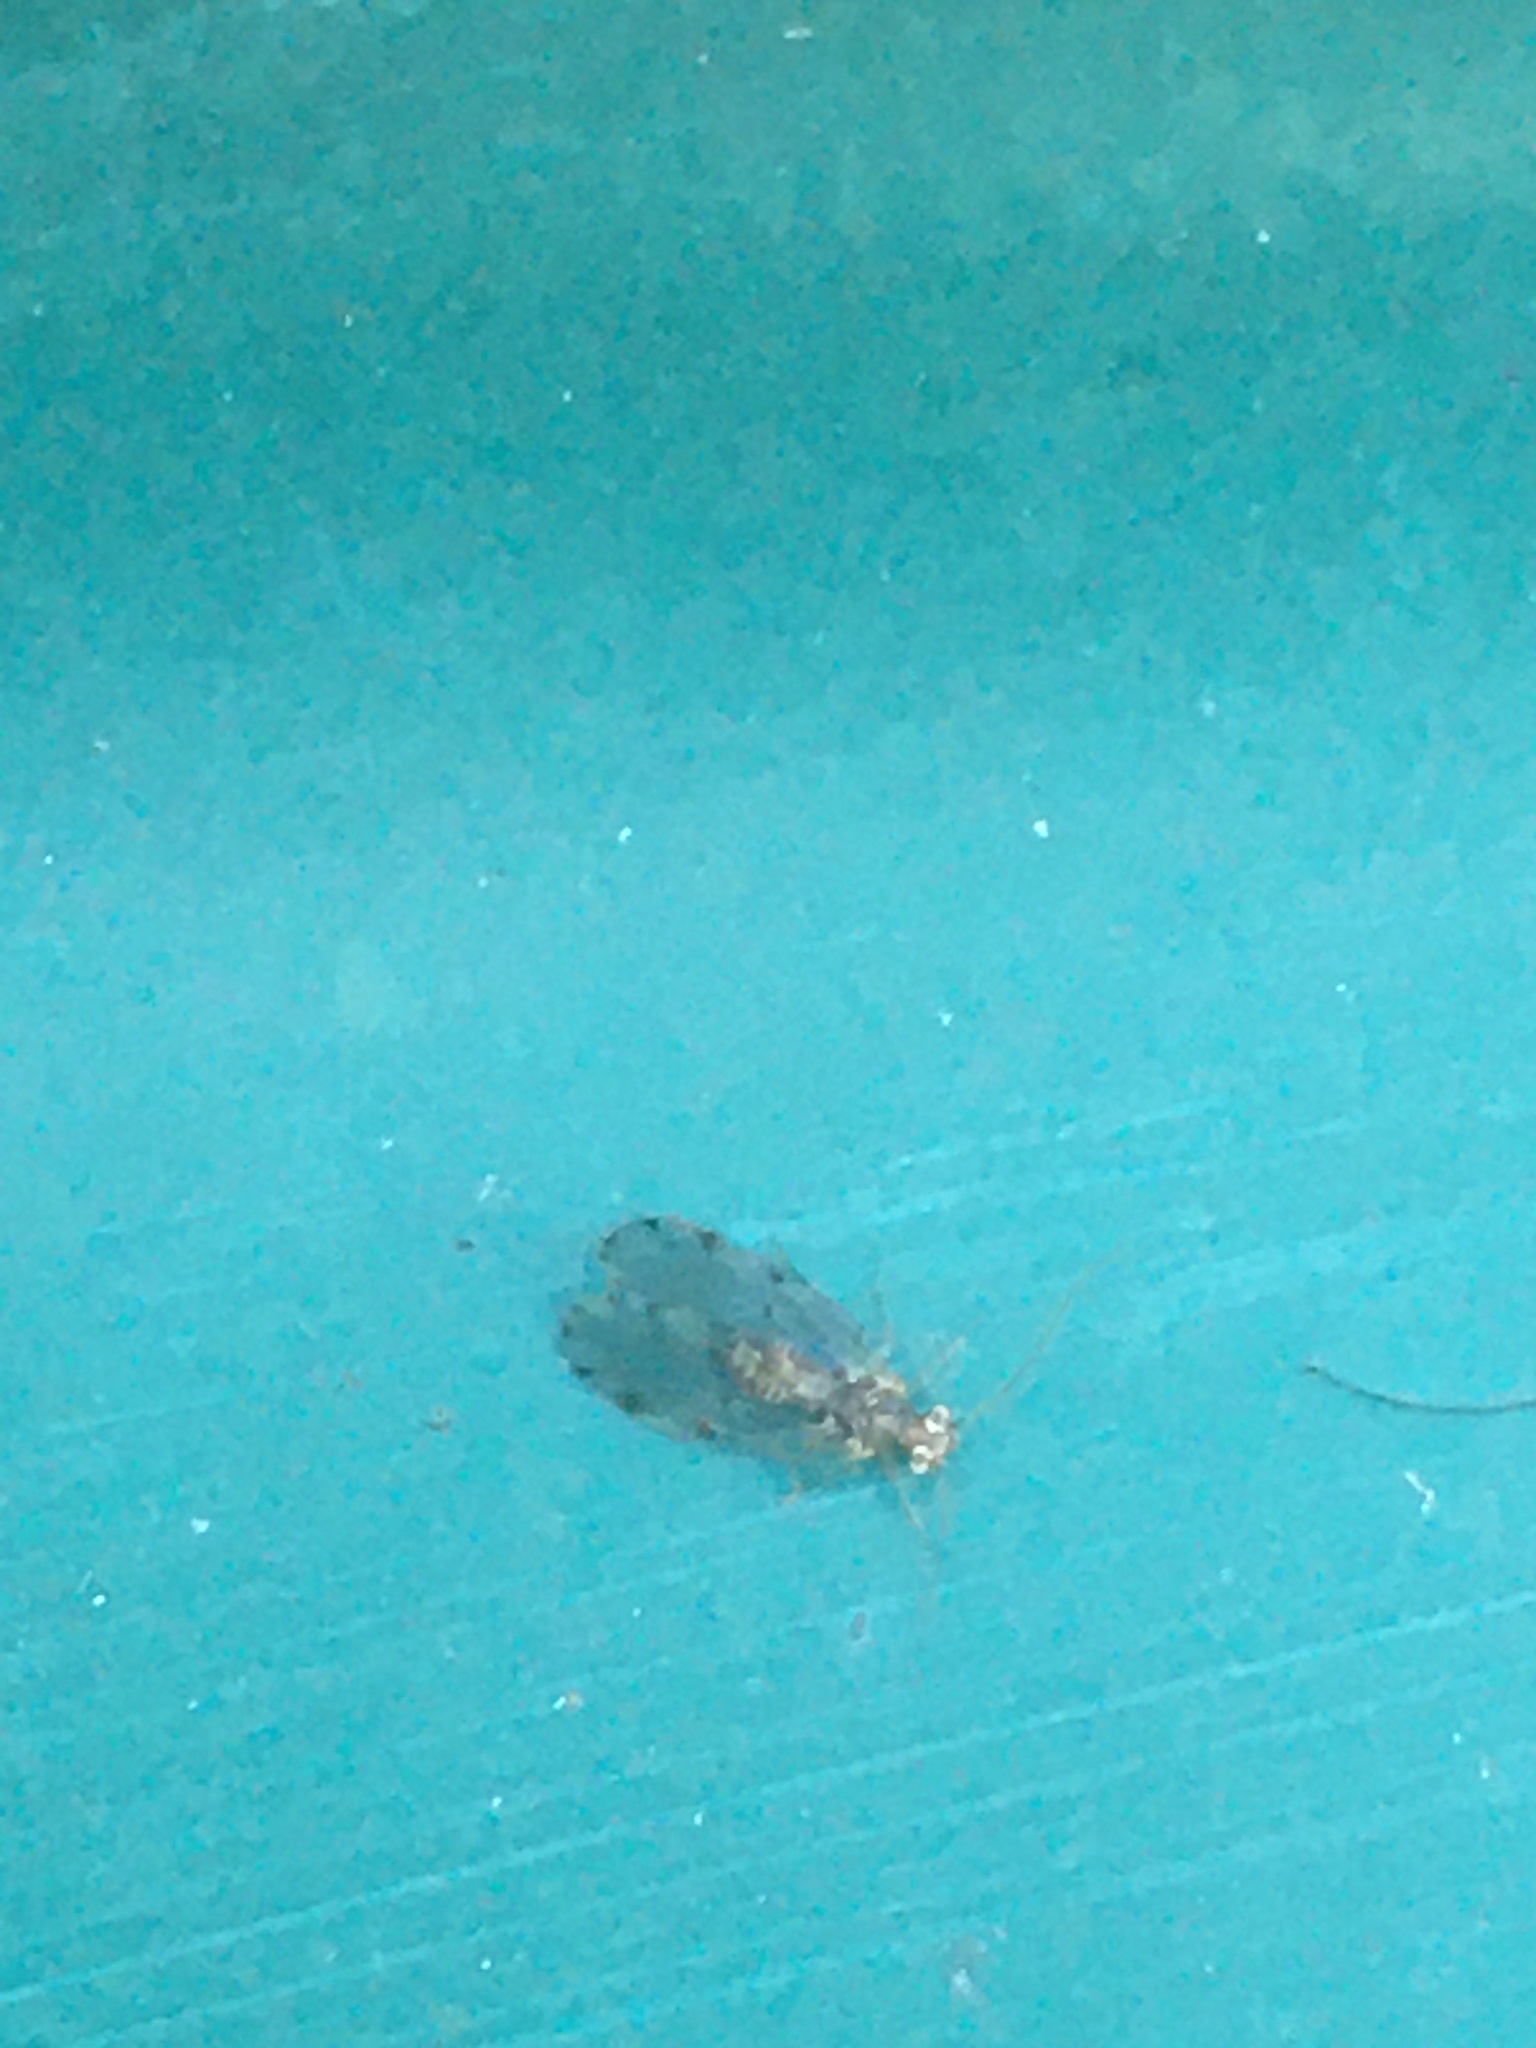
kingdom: Animalia
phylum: Arthropoda
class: Insecta
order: Psocodea
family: Ectopsocidae
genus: Ectopsocus
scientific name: Ectopsocus petersi
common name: Medium-sized bark louse
